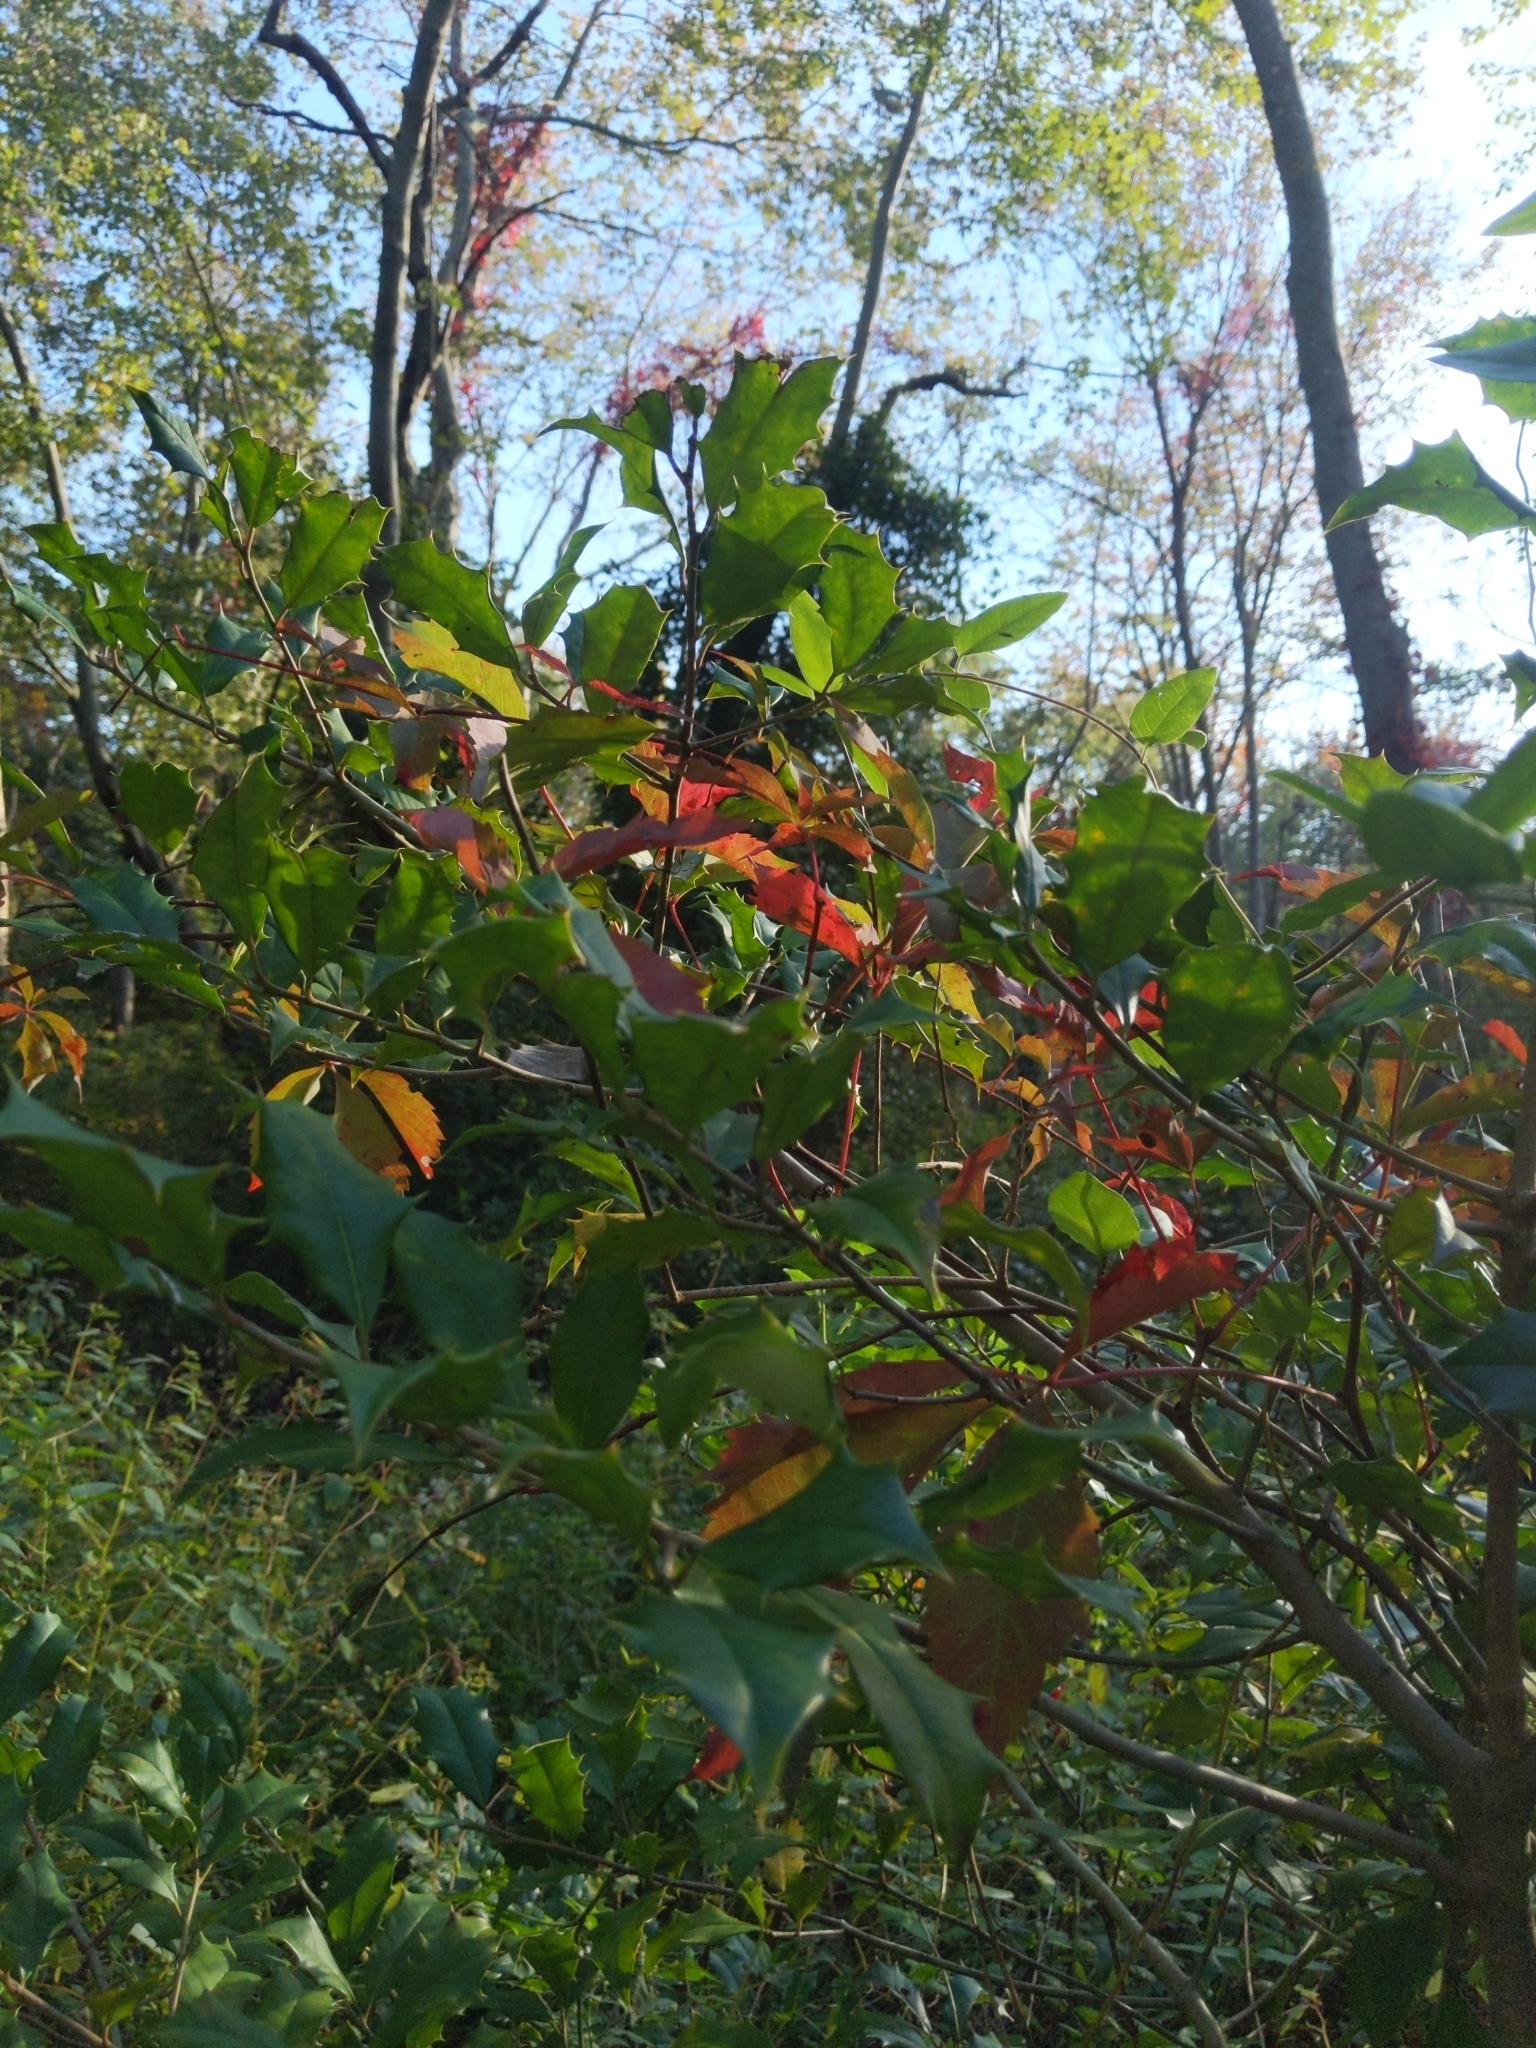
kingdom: Plantae
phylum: Tracheophyta
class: Magnoliopsida
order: Aquifoliales
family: Aquifoliaceae
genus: Ilex
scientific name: Ilex opaca
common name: American holly
